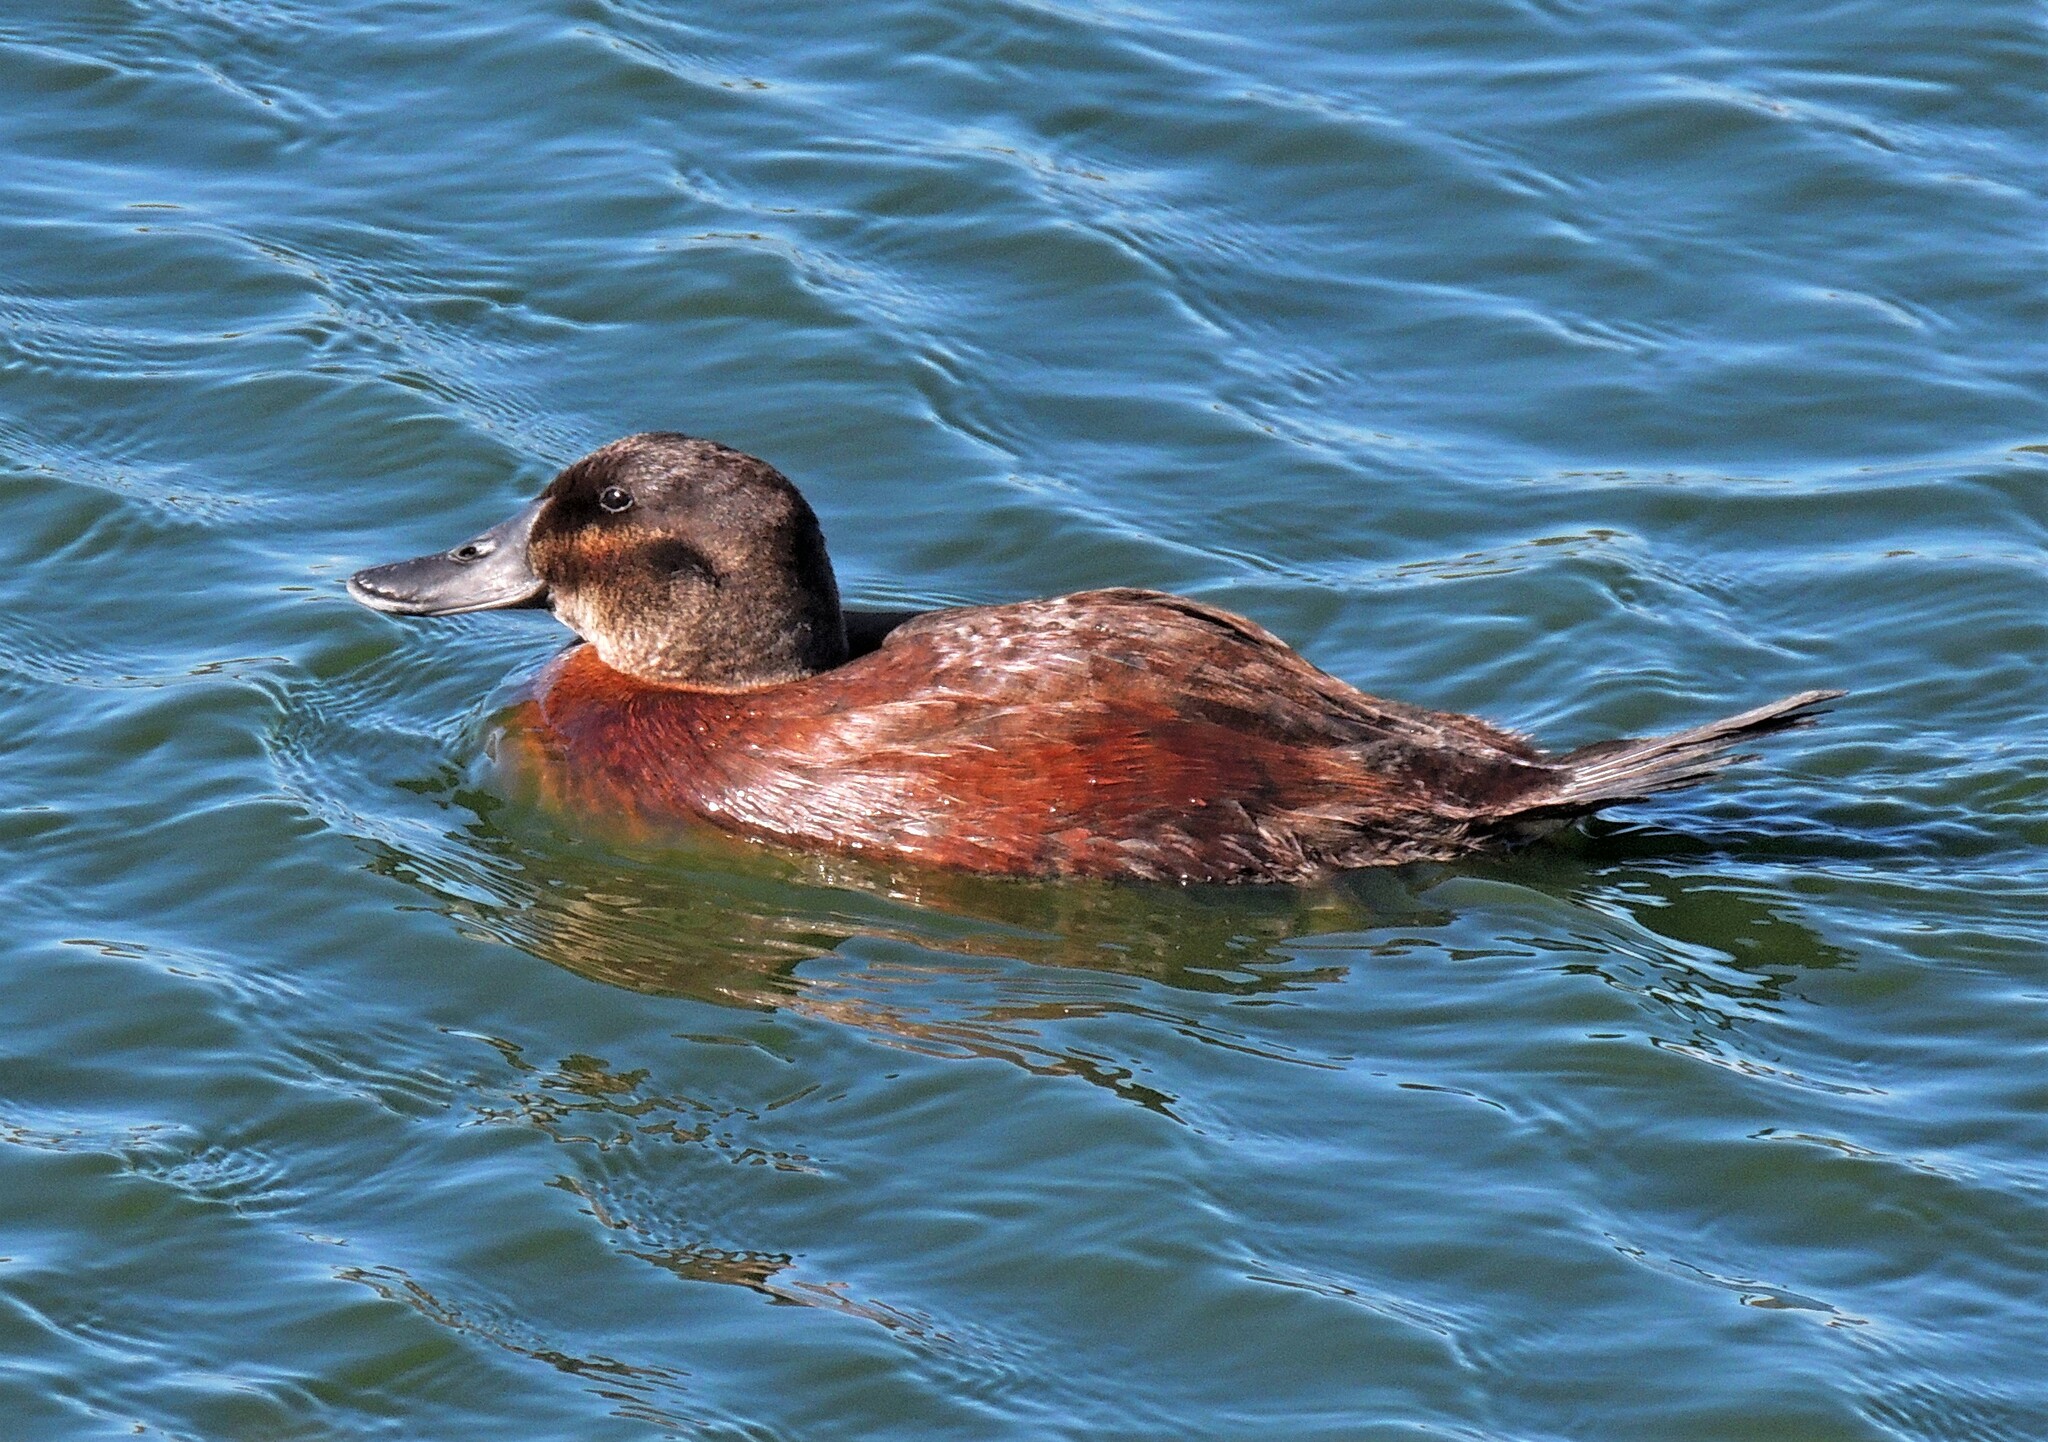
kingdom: Animalia
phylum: Chordata
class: Aves
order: Anseriformes
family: Anatidae
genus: Oxyura
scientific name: Oxyura ferruginea
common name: Andean duck
